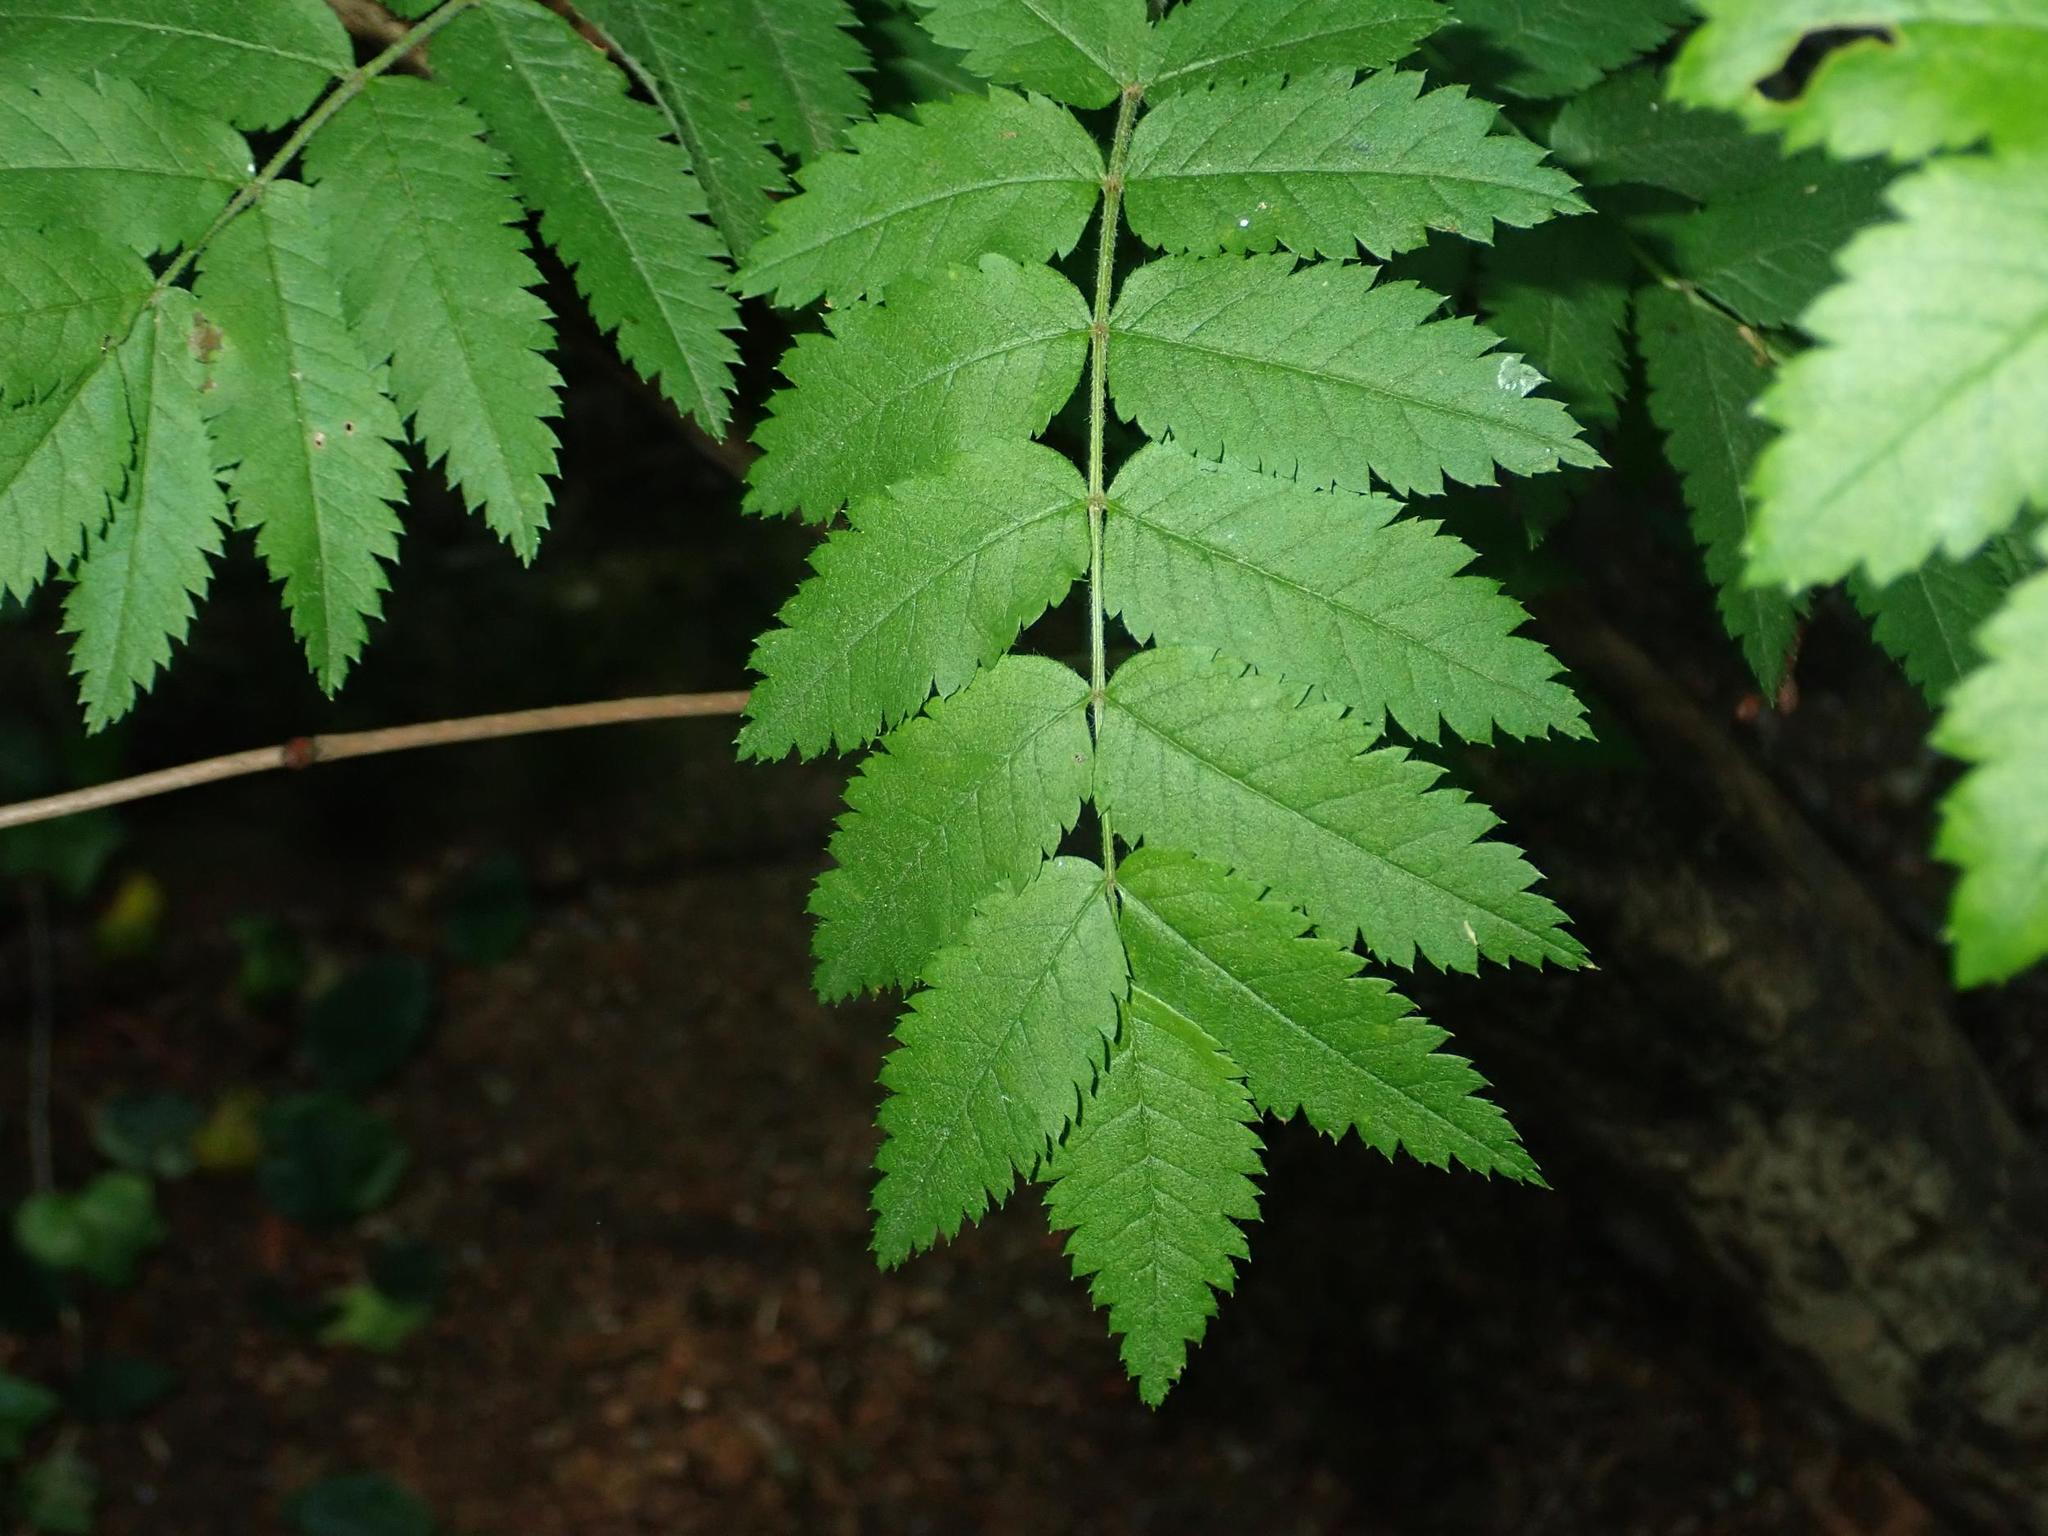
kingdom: Plantae
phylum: Tracheophyta
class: Magnoliopsida
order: Rosales
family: Rosaceae
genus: Sorbus
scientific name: Sorbus aucuparia
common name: Rowan
